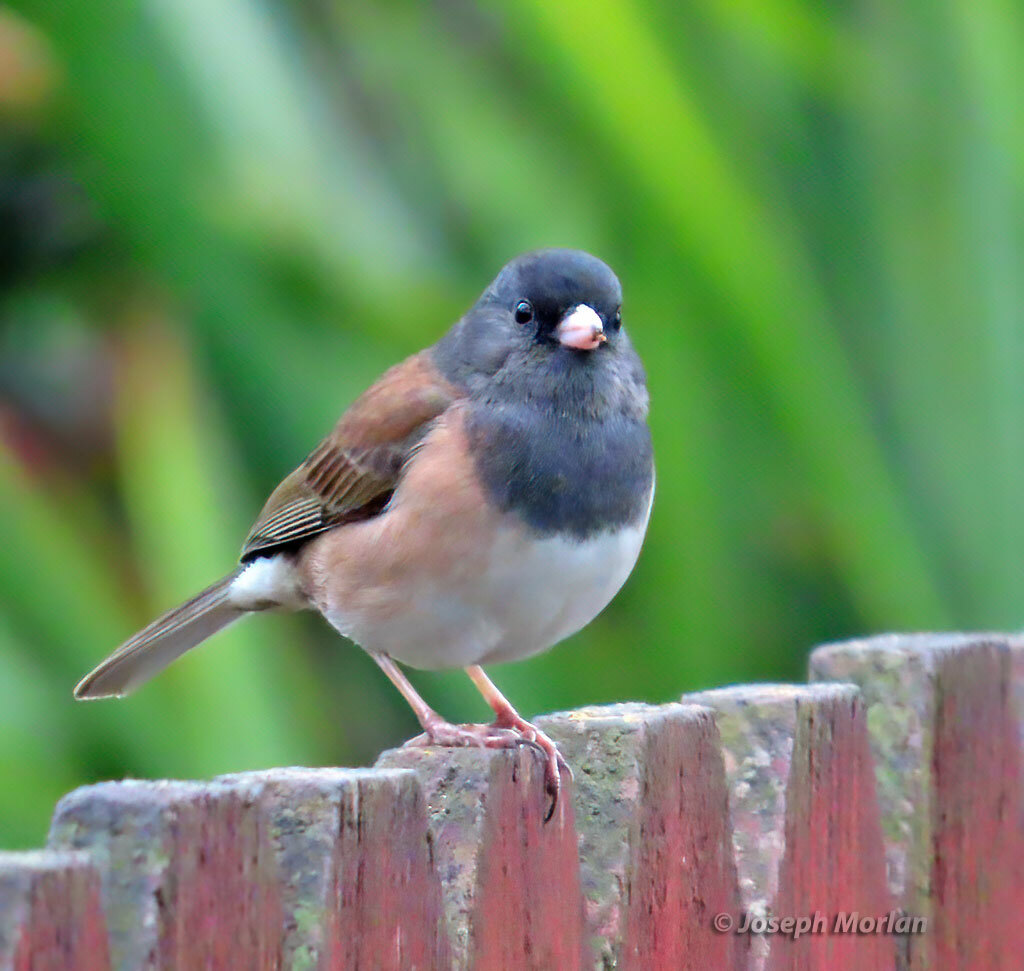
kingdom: Animalia
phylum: Chordata
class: Aves
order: Passeriformes
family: Passerellidae
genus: Junco
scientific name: Junco hyemalis
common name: Dark-eyed junco
